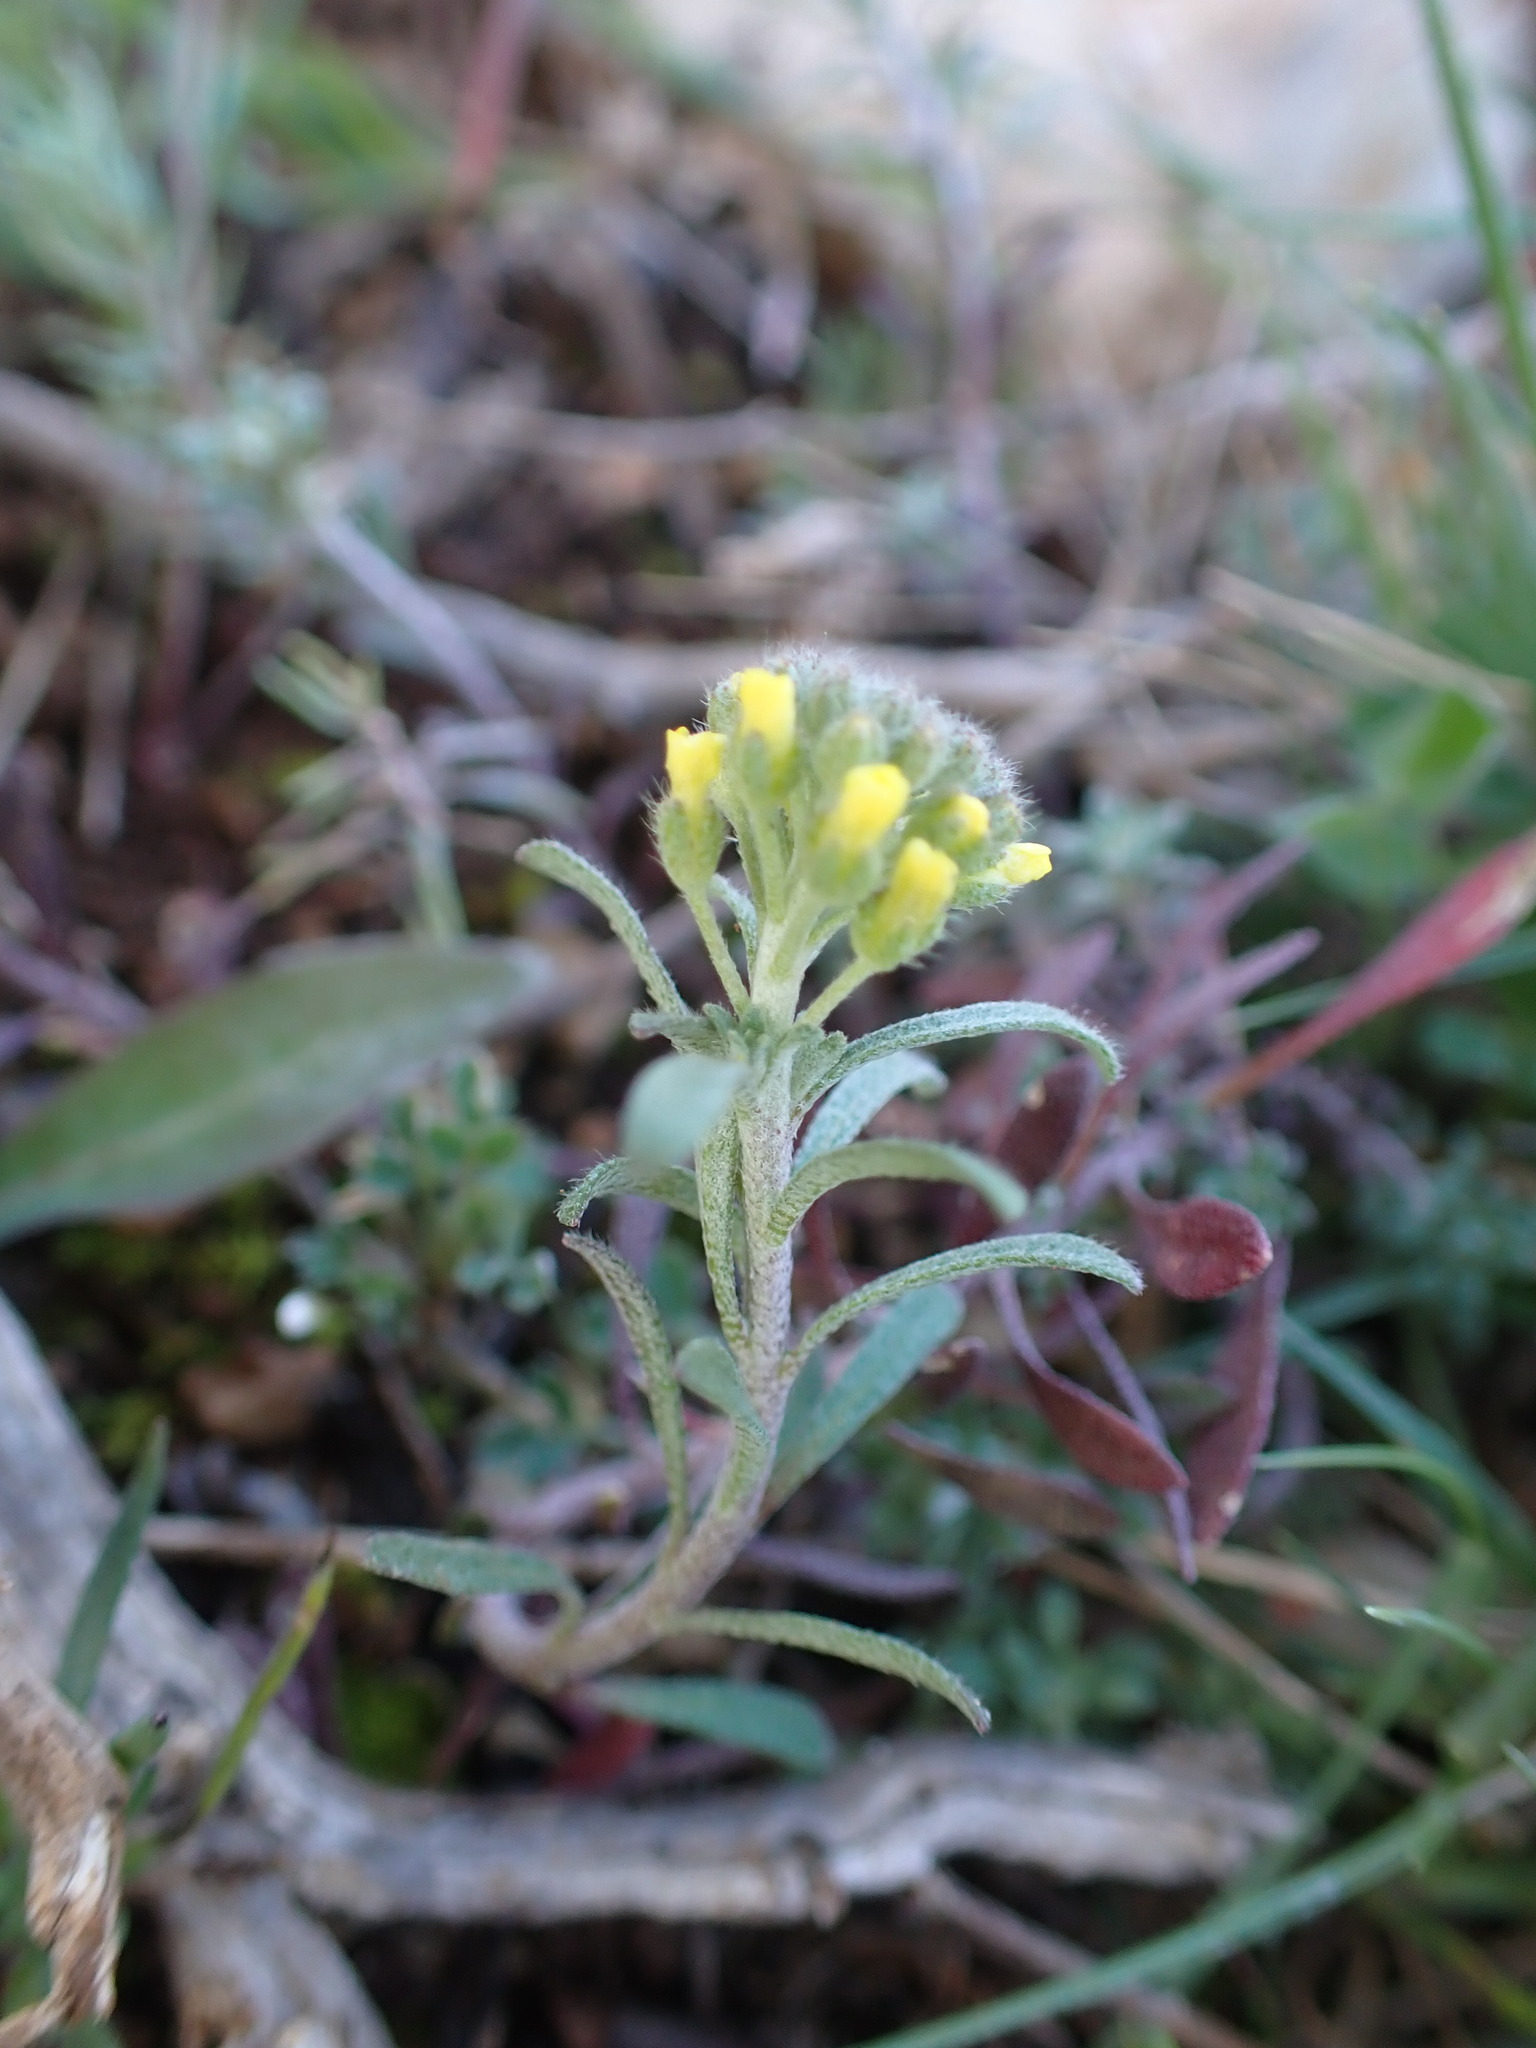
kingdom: Plantae
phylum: Tracheophyta
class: Magnoliopsida
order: Brassicales
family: Brassicaceae
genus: Alyssum
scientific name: Alyssum alyssoides
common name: Small alison
